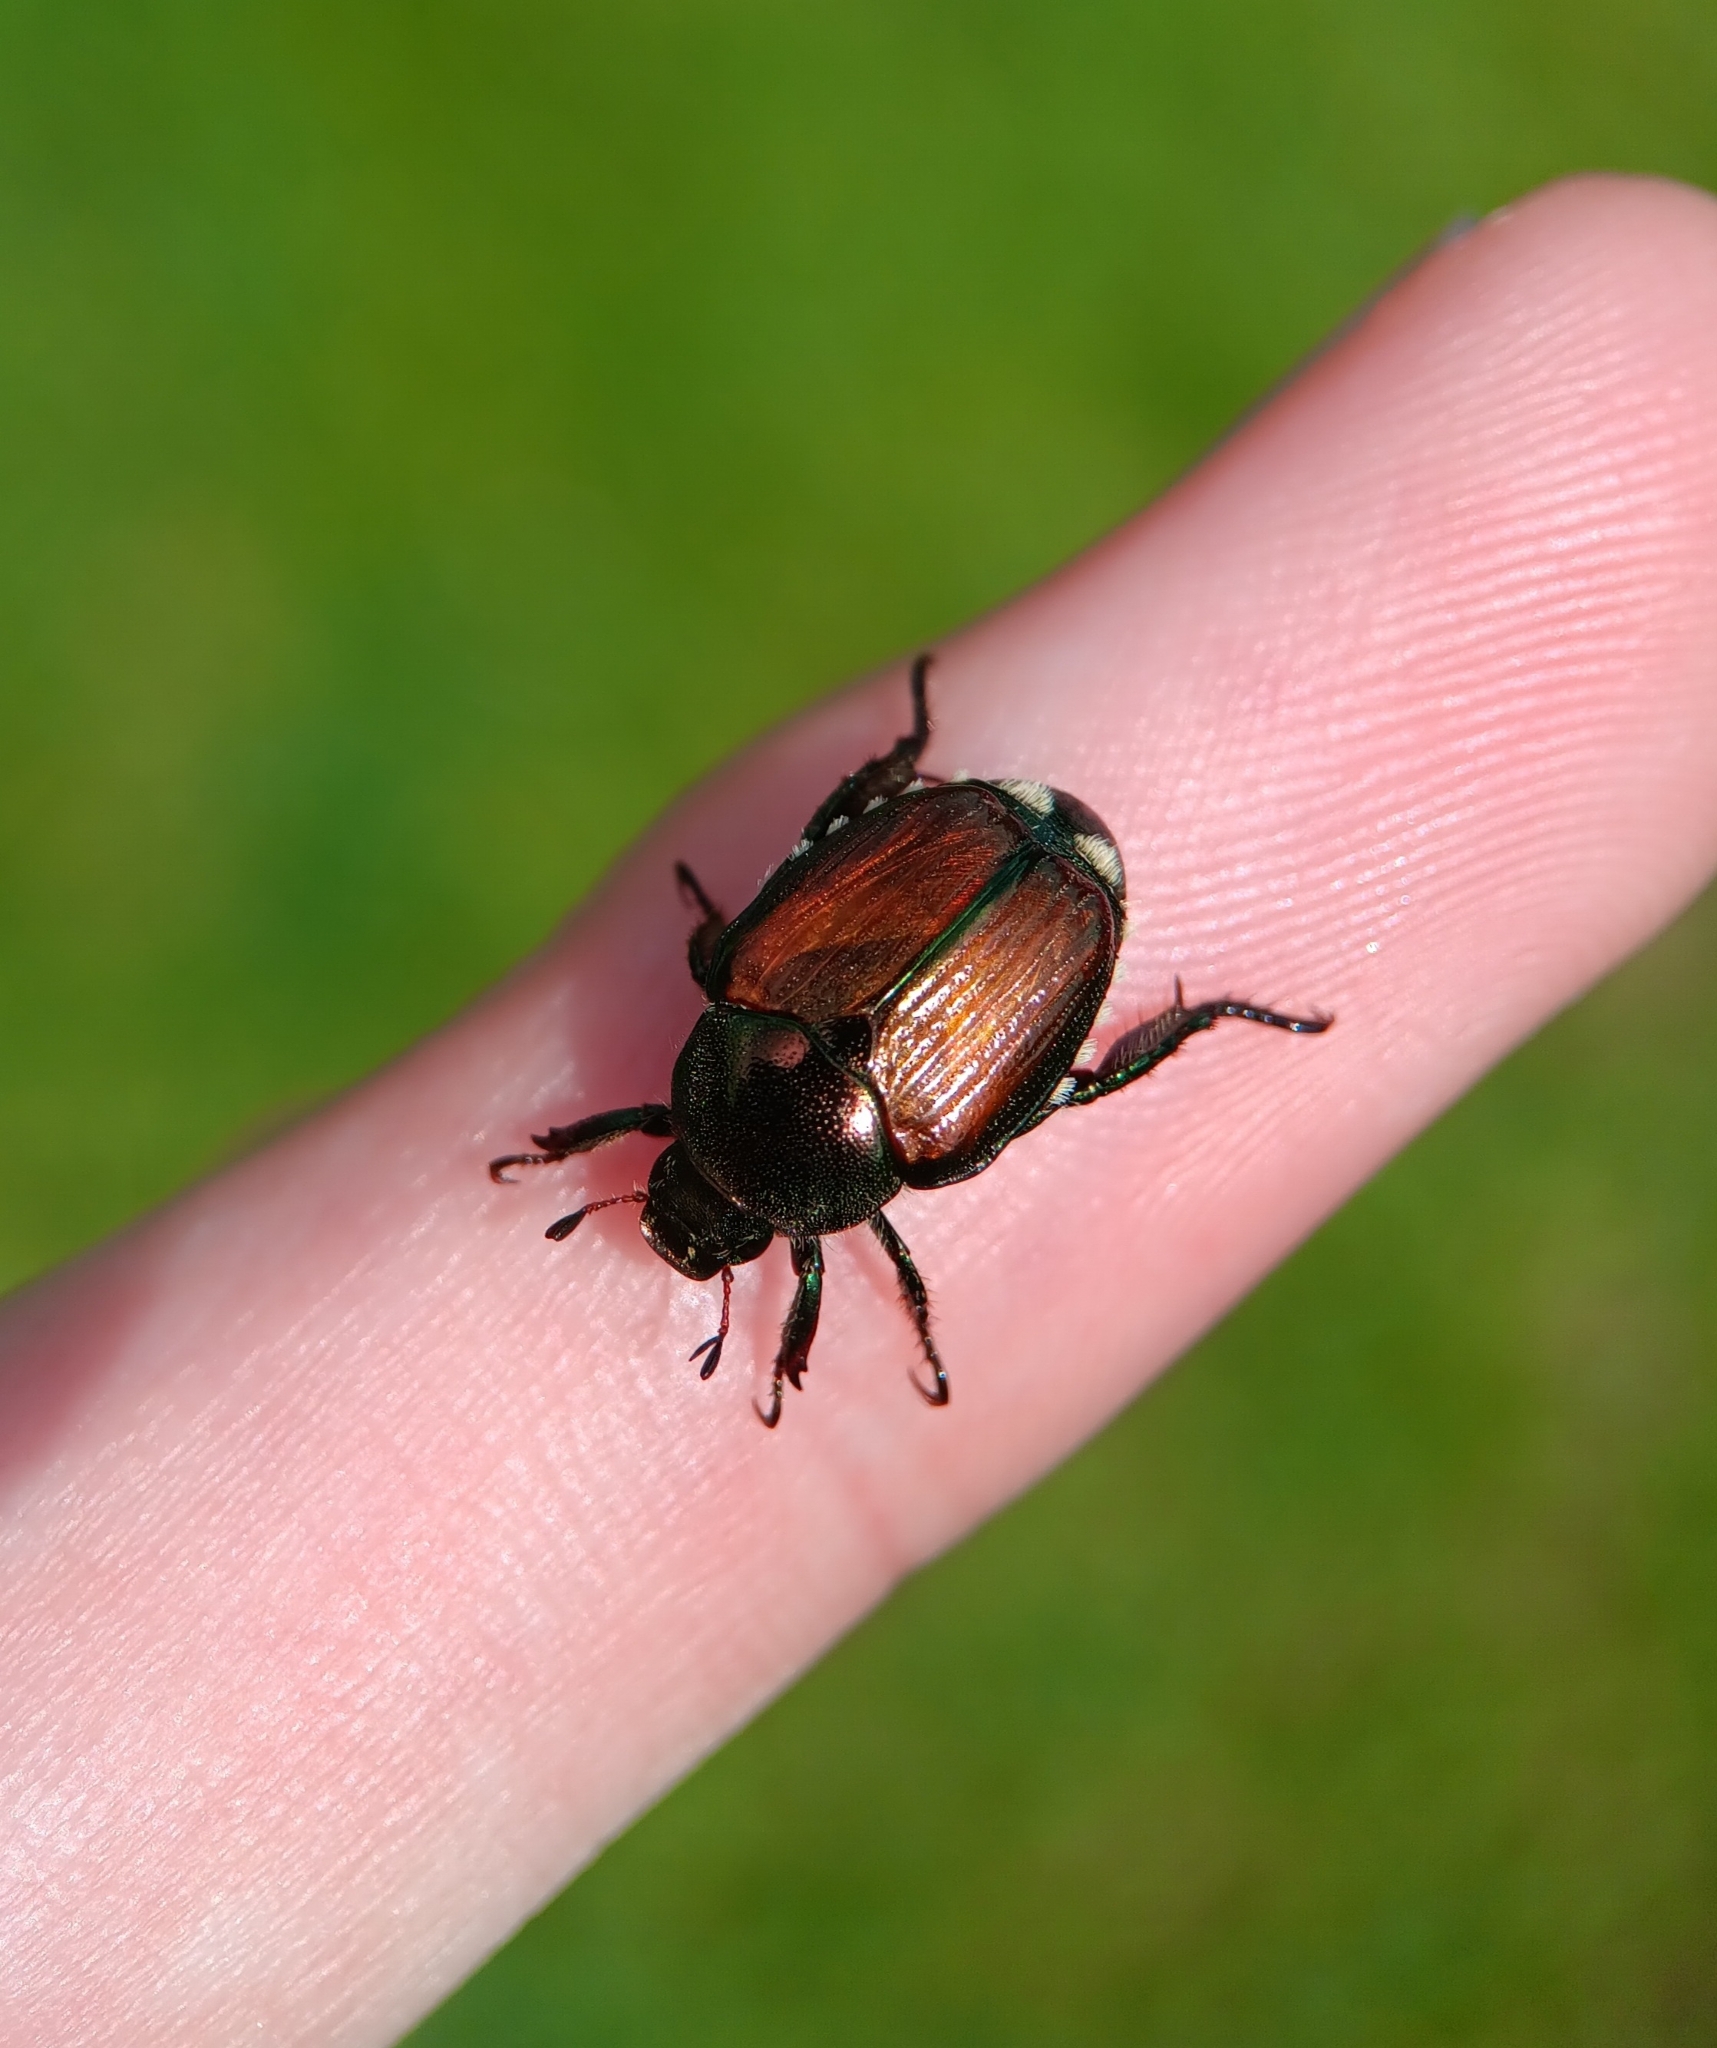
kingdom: Animalia
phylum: Arthropoda
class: Insecta
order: Coleoptera
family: Scarabaeidae
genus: Popillia
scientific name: Popillia japonica
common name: Japanese beetle
